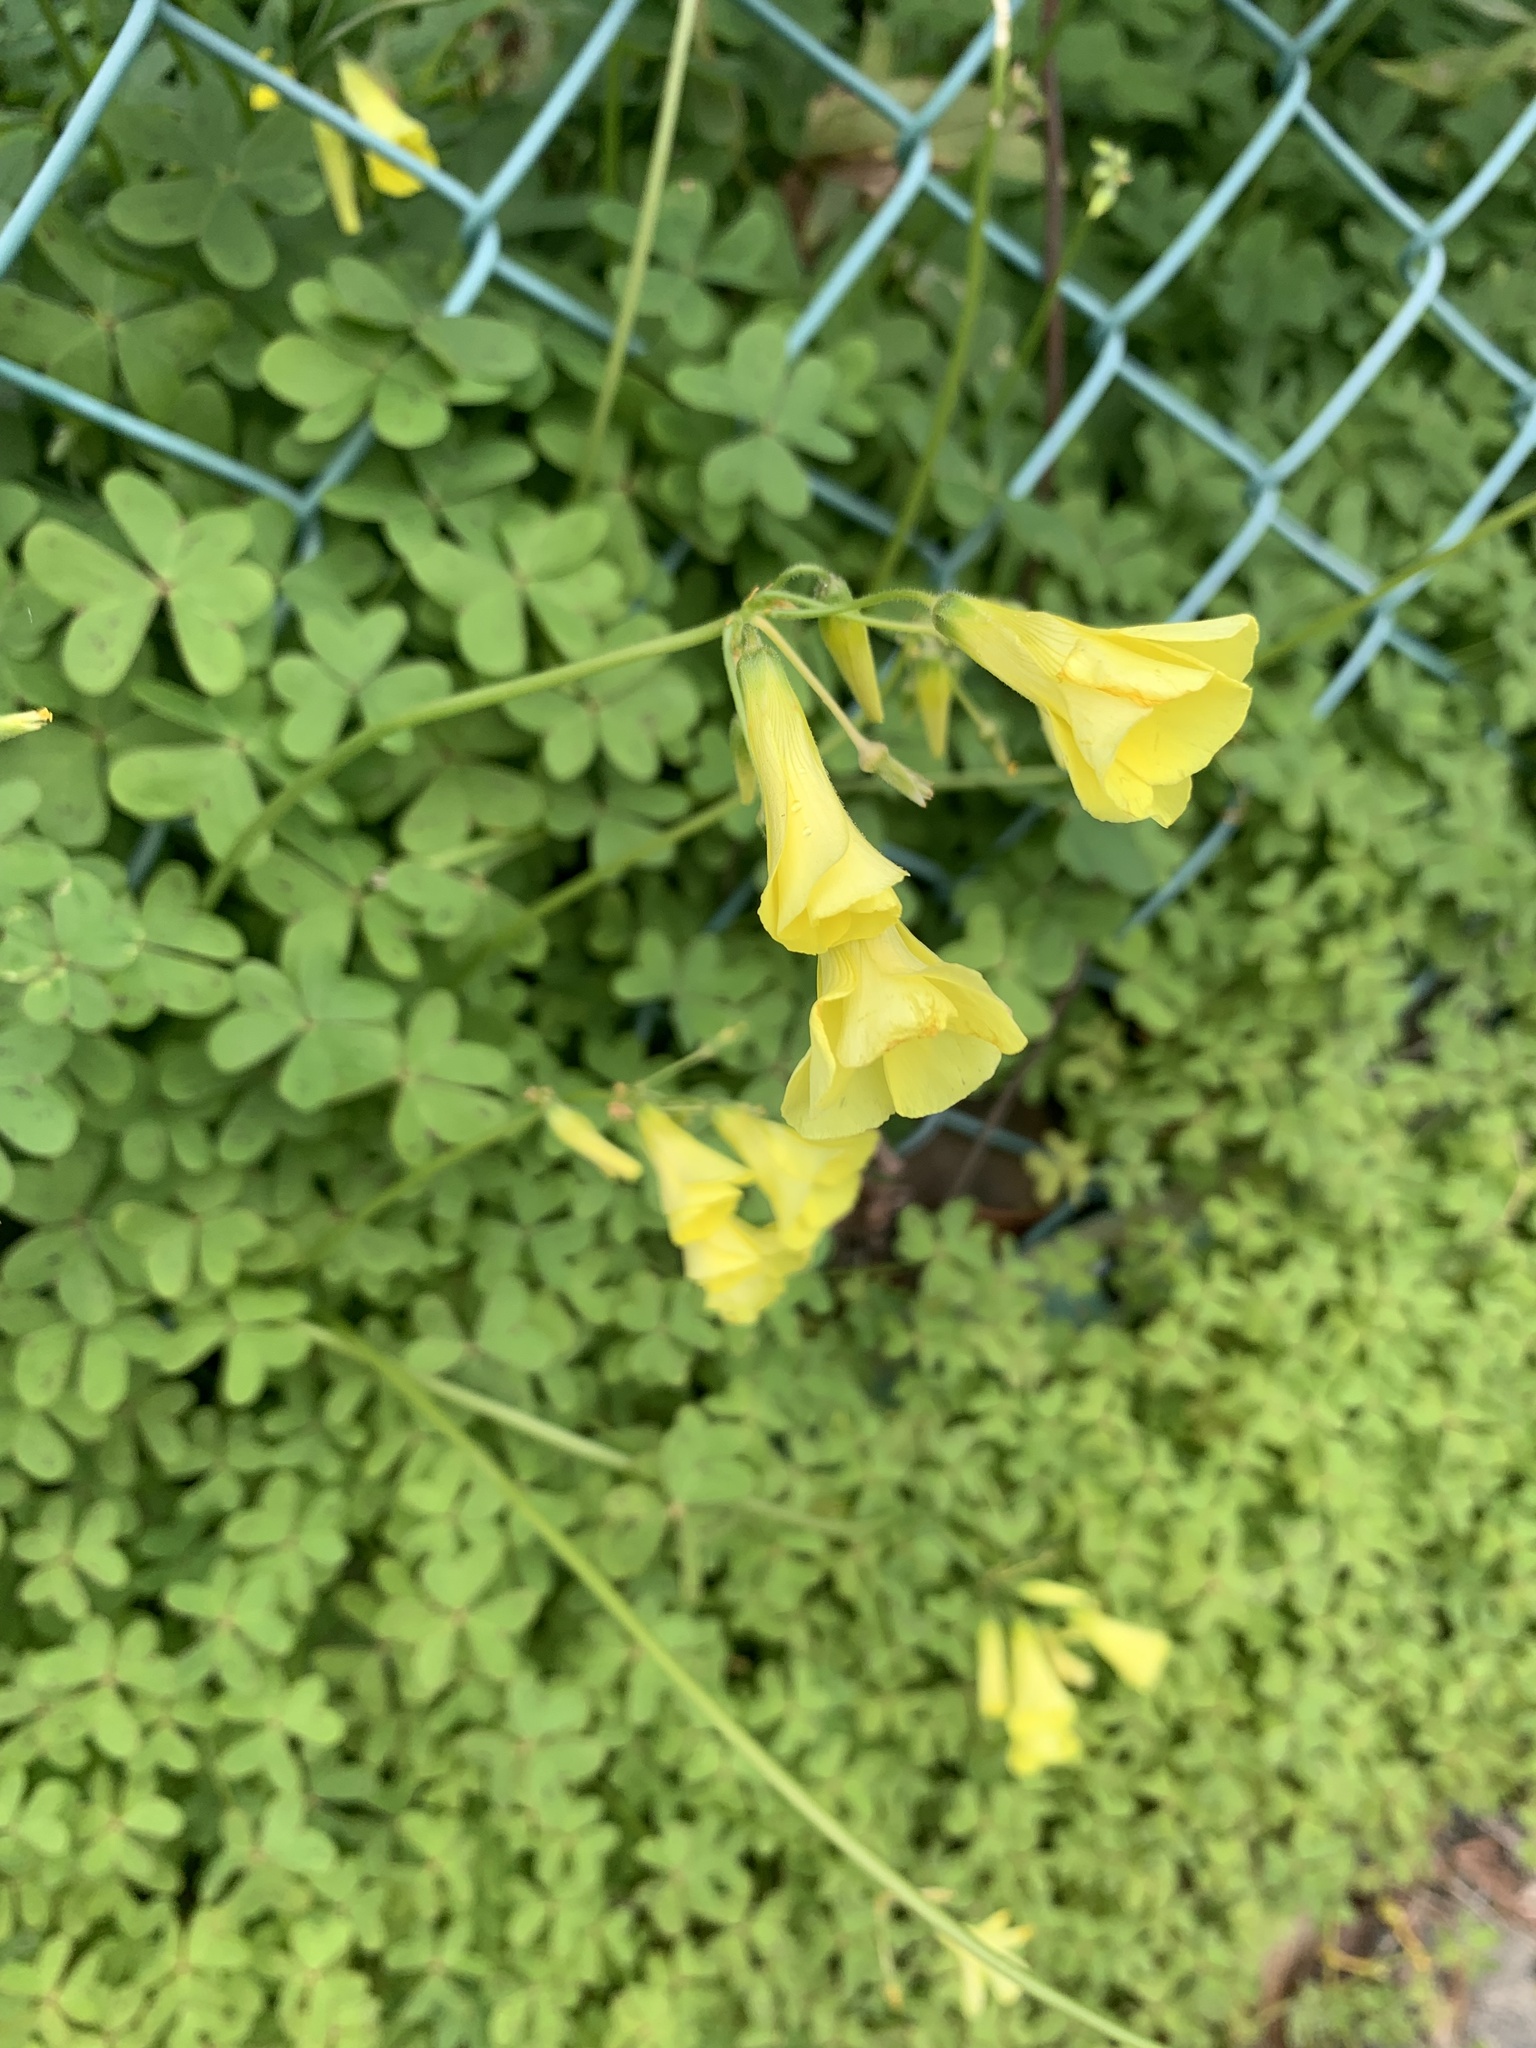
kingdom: Plantae
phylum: Tracheophyta
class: Magnoliopsida
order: Oxalidales
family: Oxalidaceae
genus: Oxalis
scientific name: Oxalis pes-caprae
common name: Bermuda-buttercup
